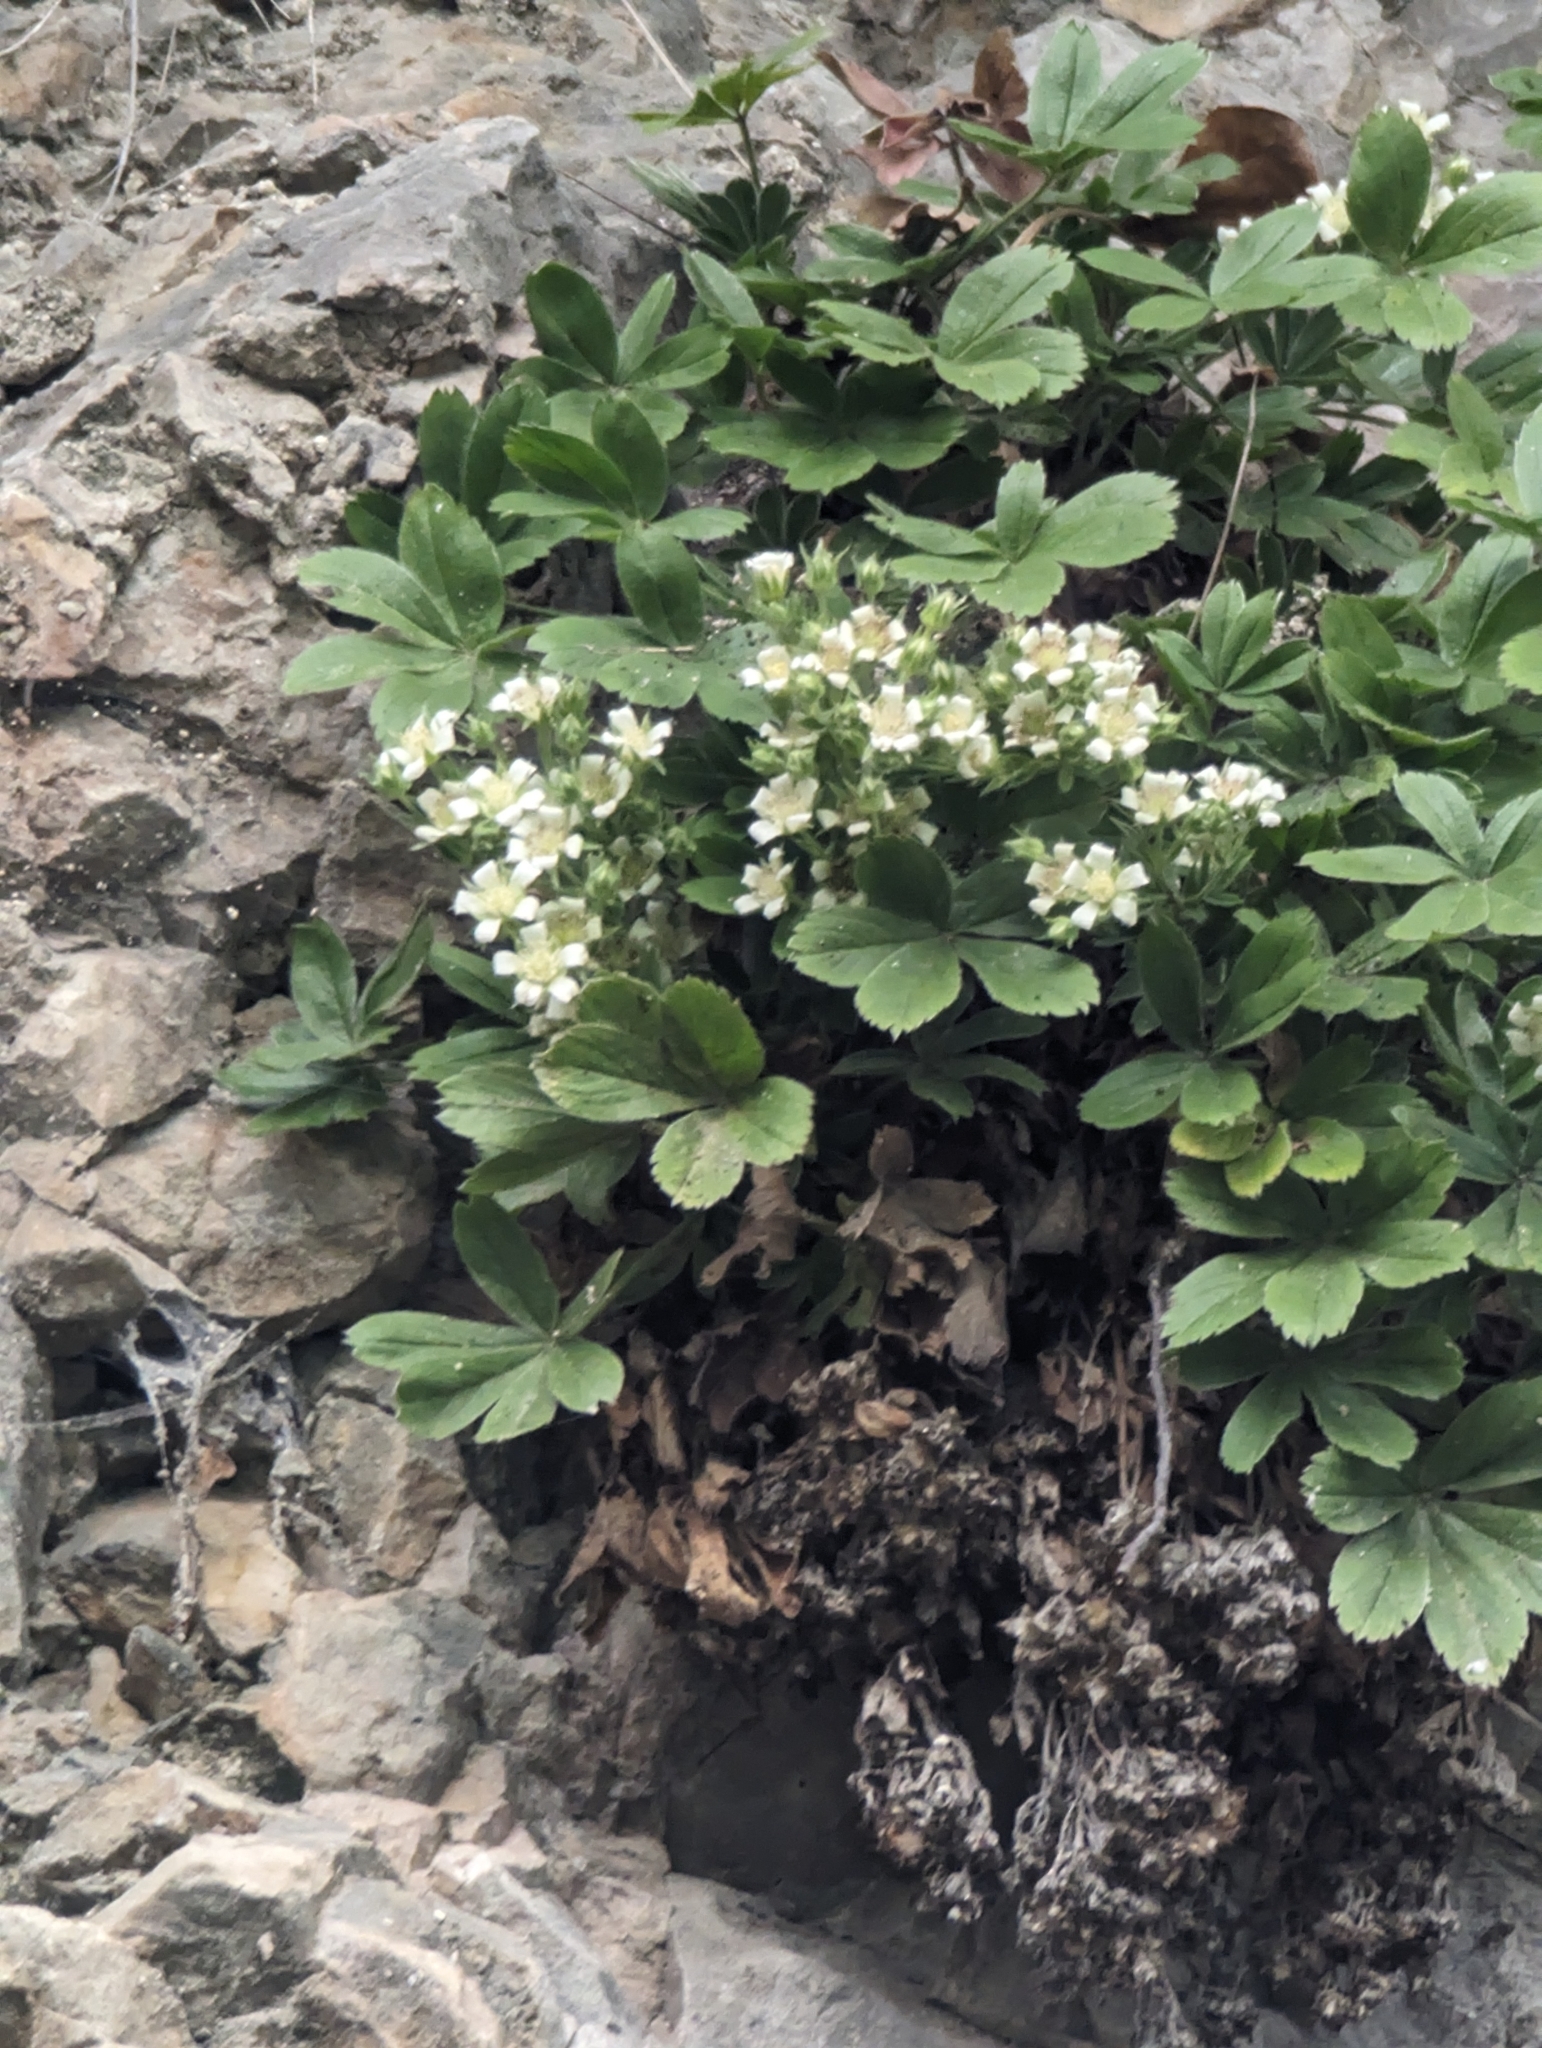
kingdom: Plantae
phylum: Tracheophyta
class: Magnoliopsida
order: Rosales
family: Rosaceae
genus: Potentilla
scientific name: Potentilla caulescens
